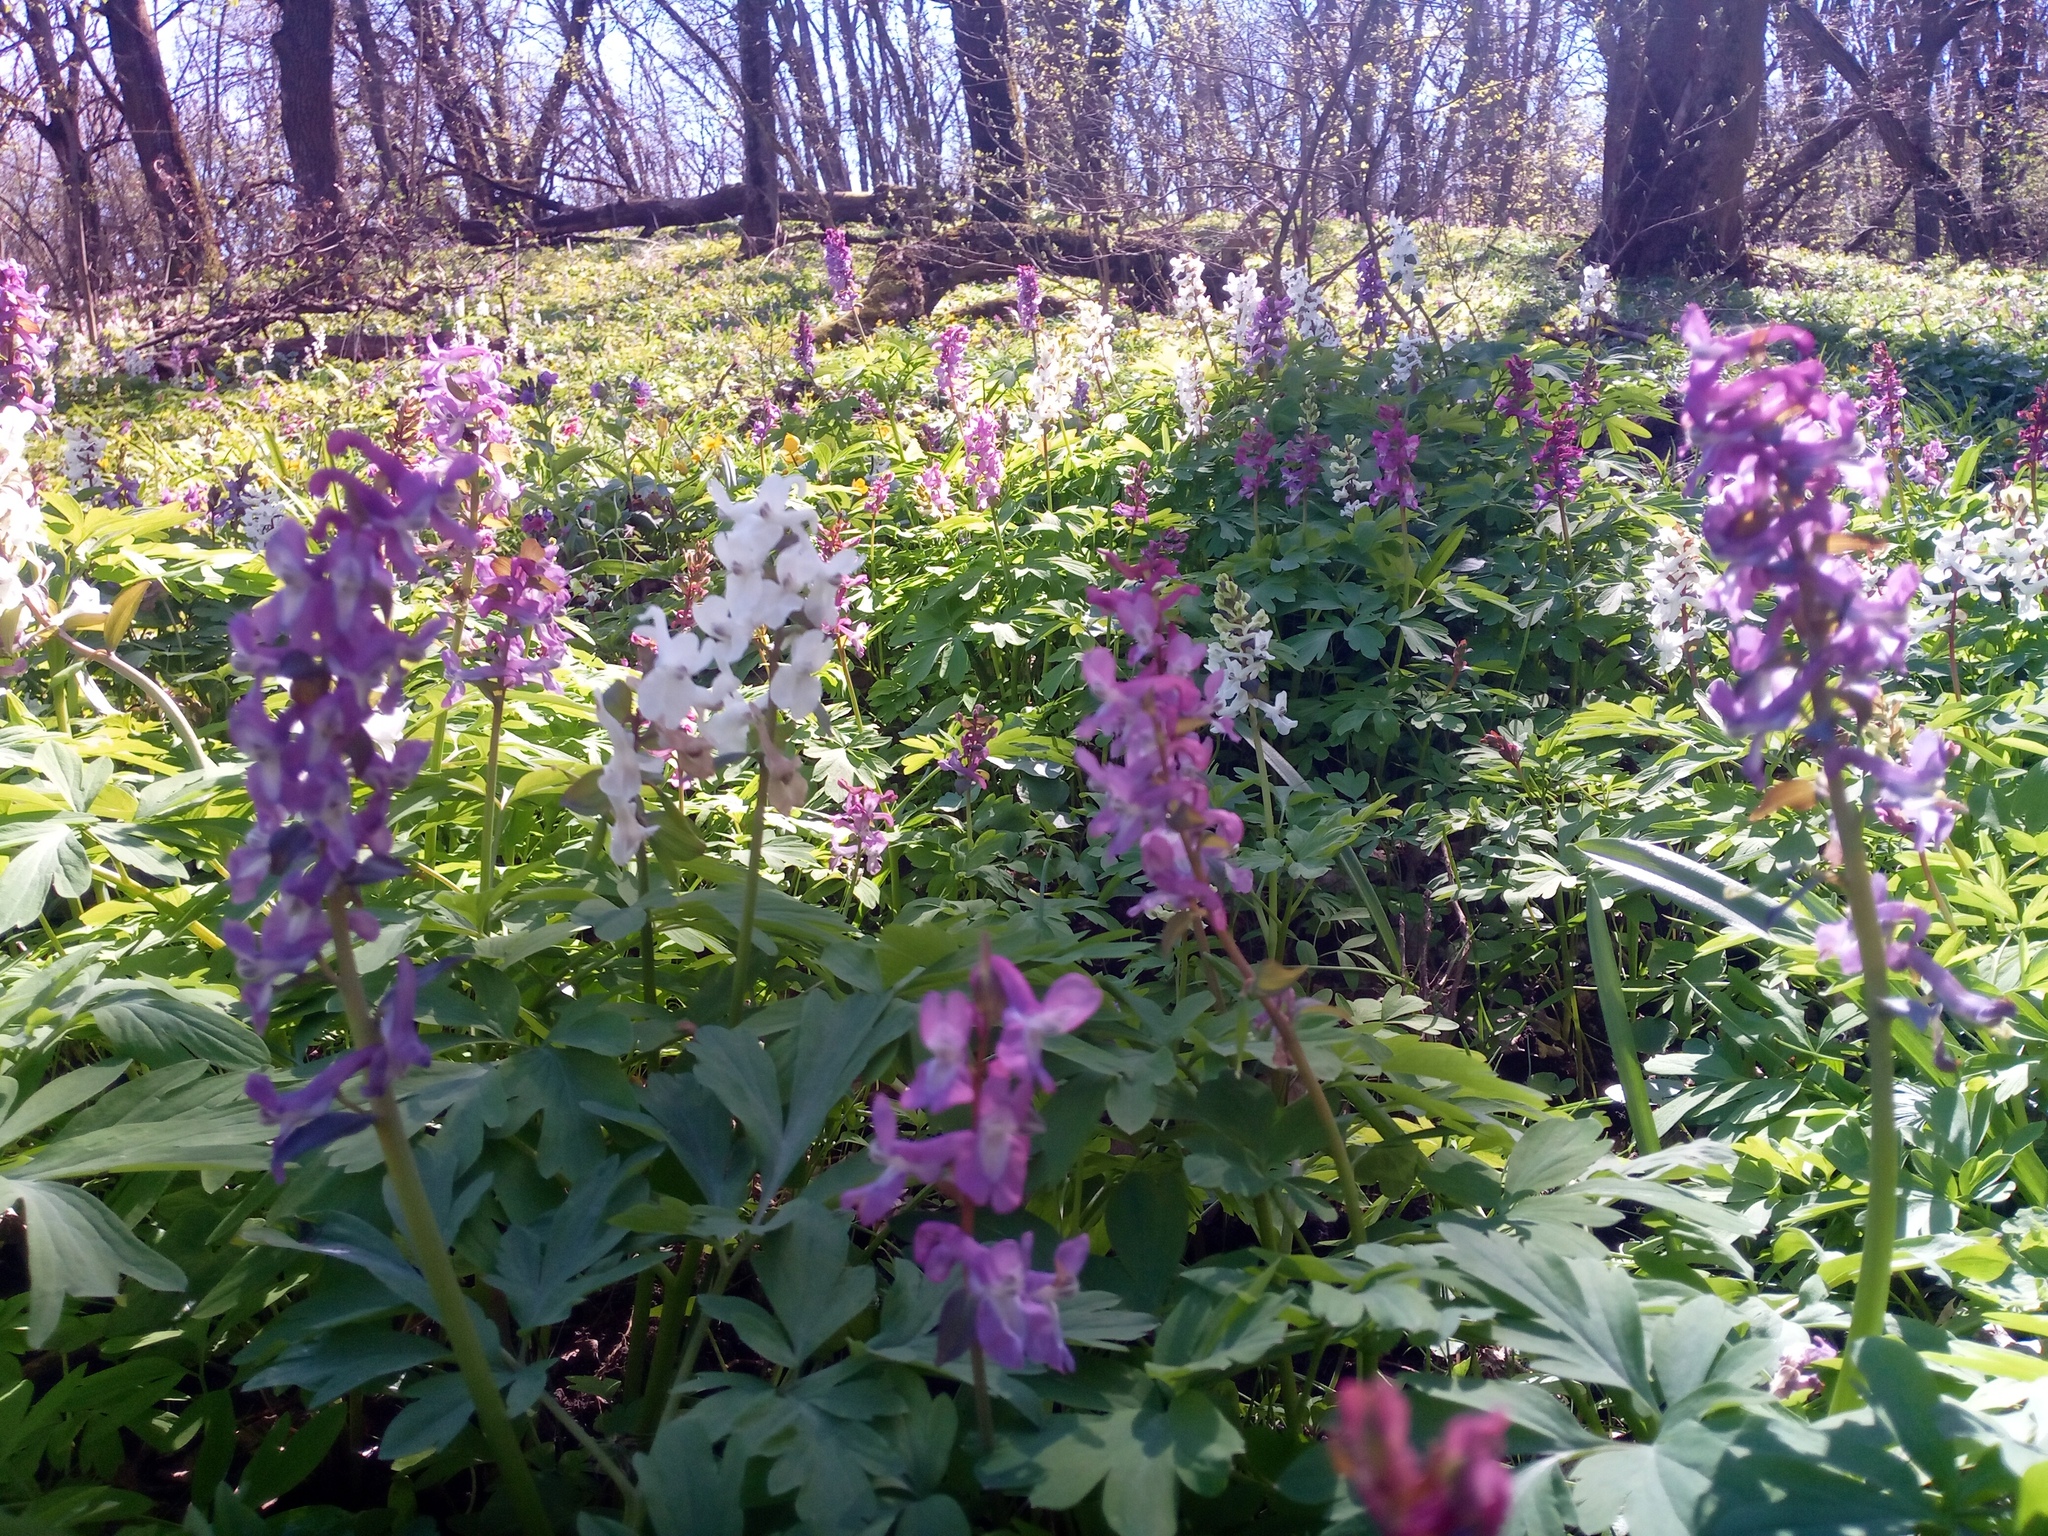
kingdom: Plantae
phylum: Tracheophyta
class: Magnoliopsida
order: Ranunculales
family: Papaveraceae
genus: Corydalis
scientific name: Corydalis cava
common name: Hollowroot
